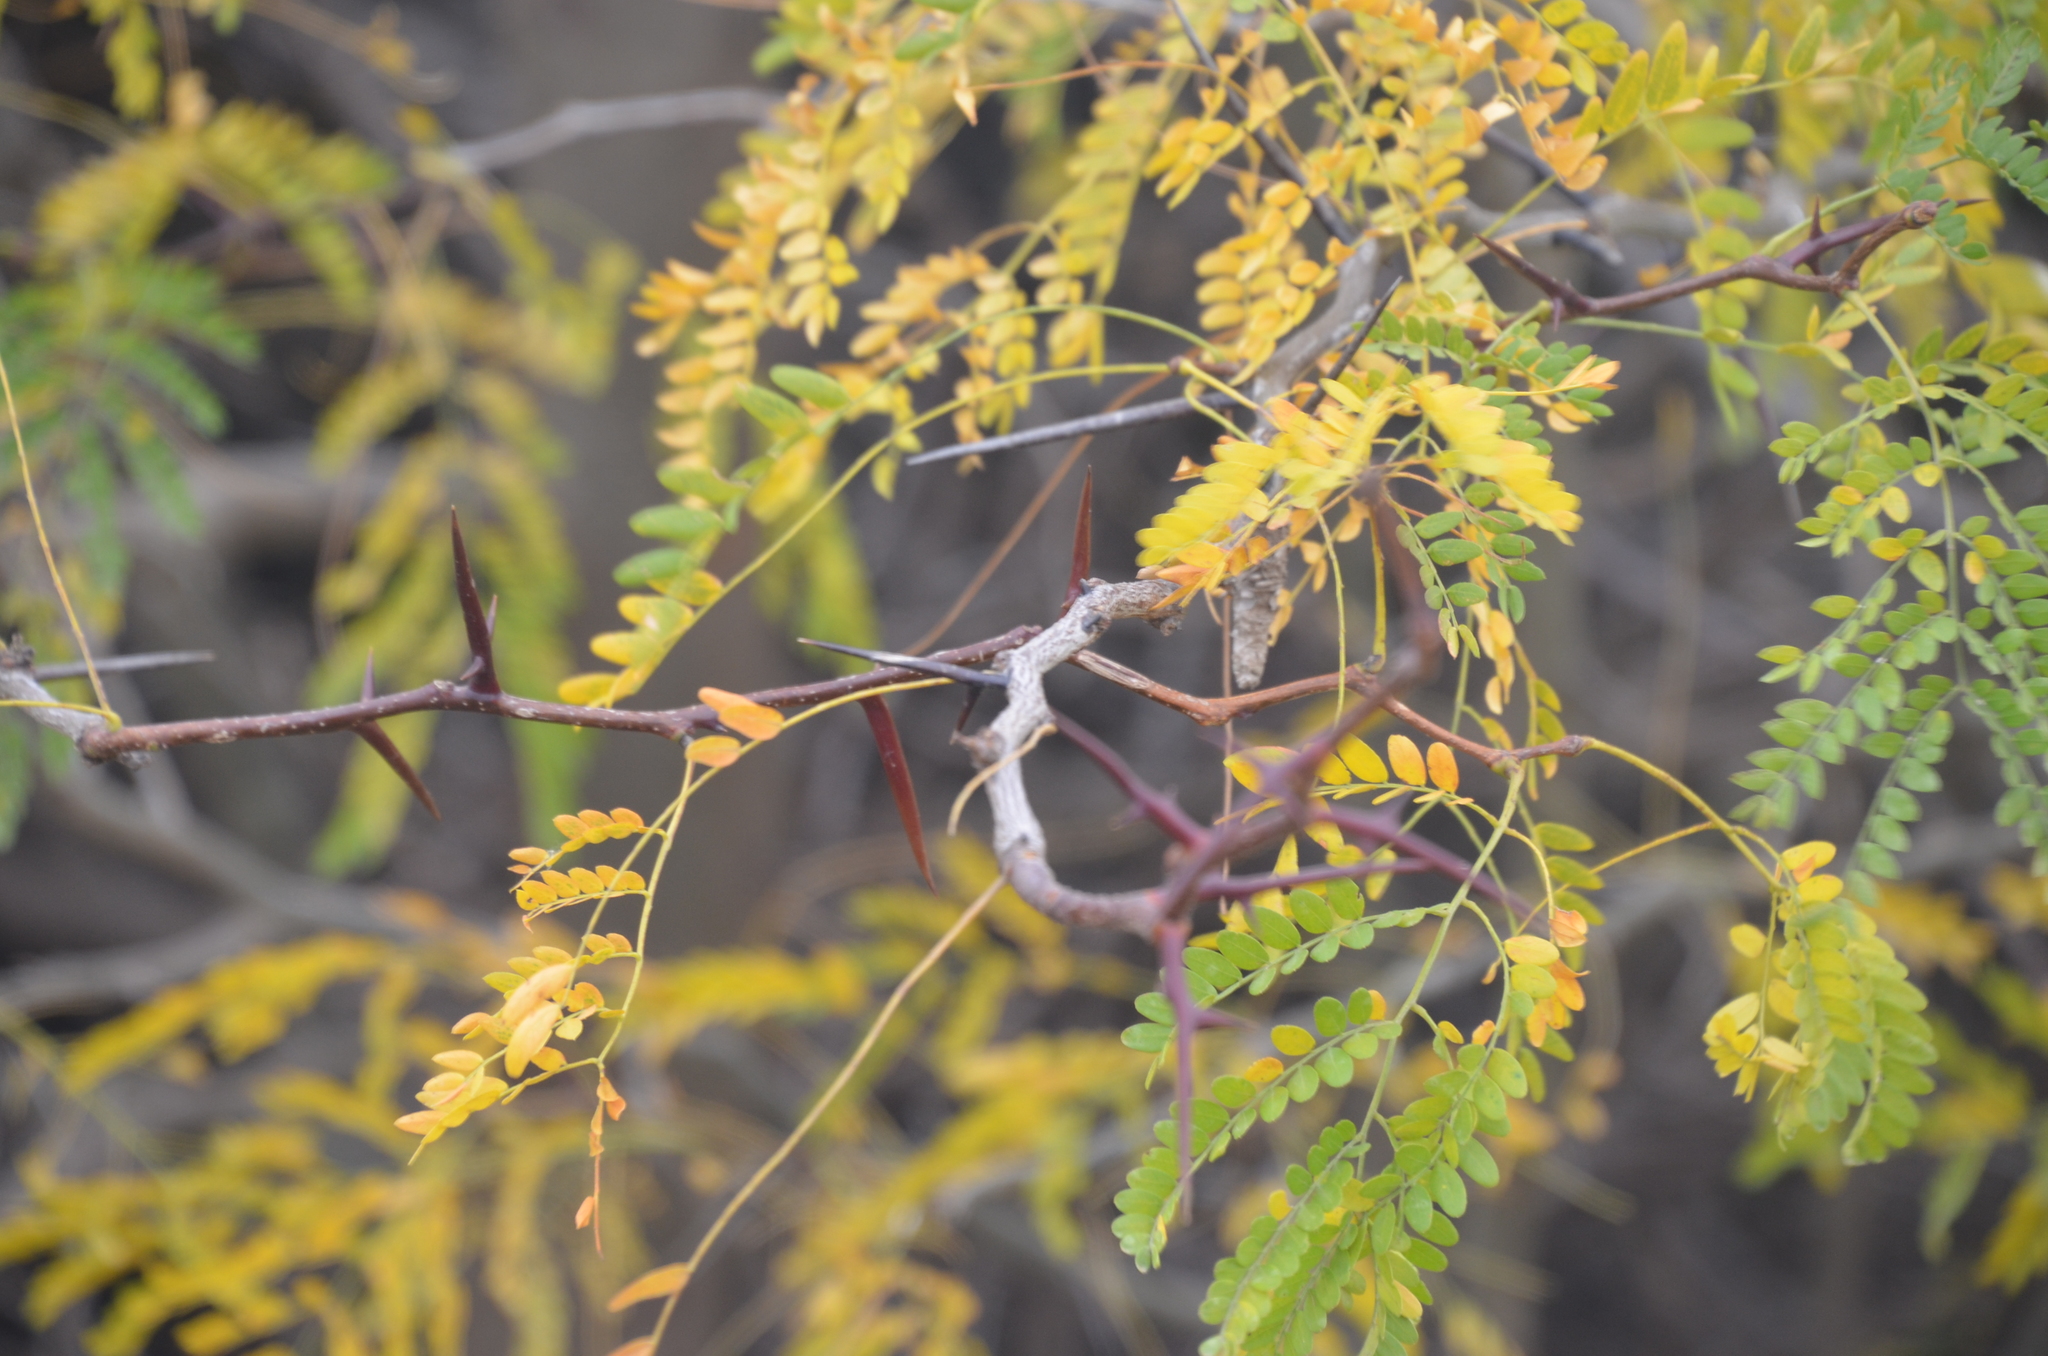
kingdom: Plantae
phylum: Tracheophyta
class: Magnoliopsida
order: Fabales
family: Fabaceae
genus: Gleditsia
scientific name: Gleditsia triacanthos
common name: Common honeylocust
